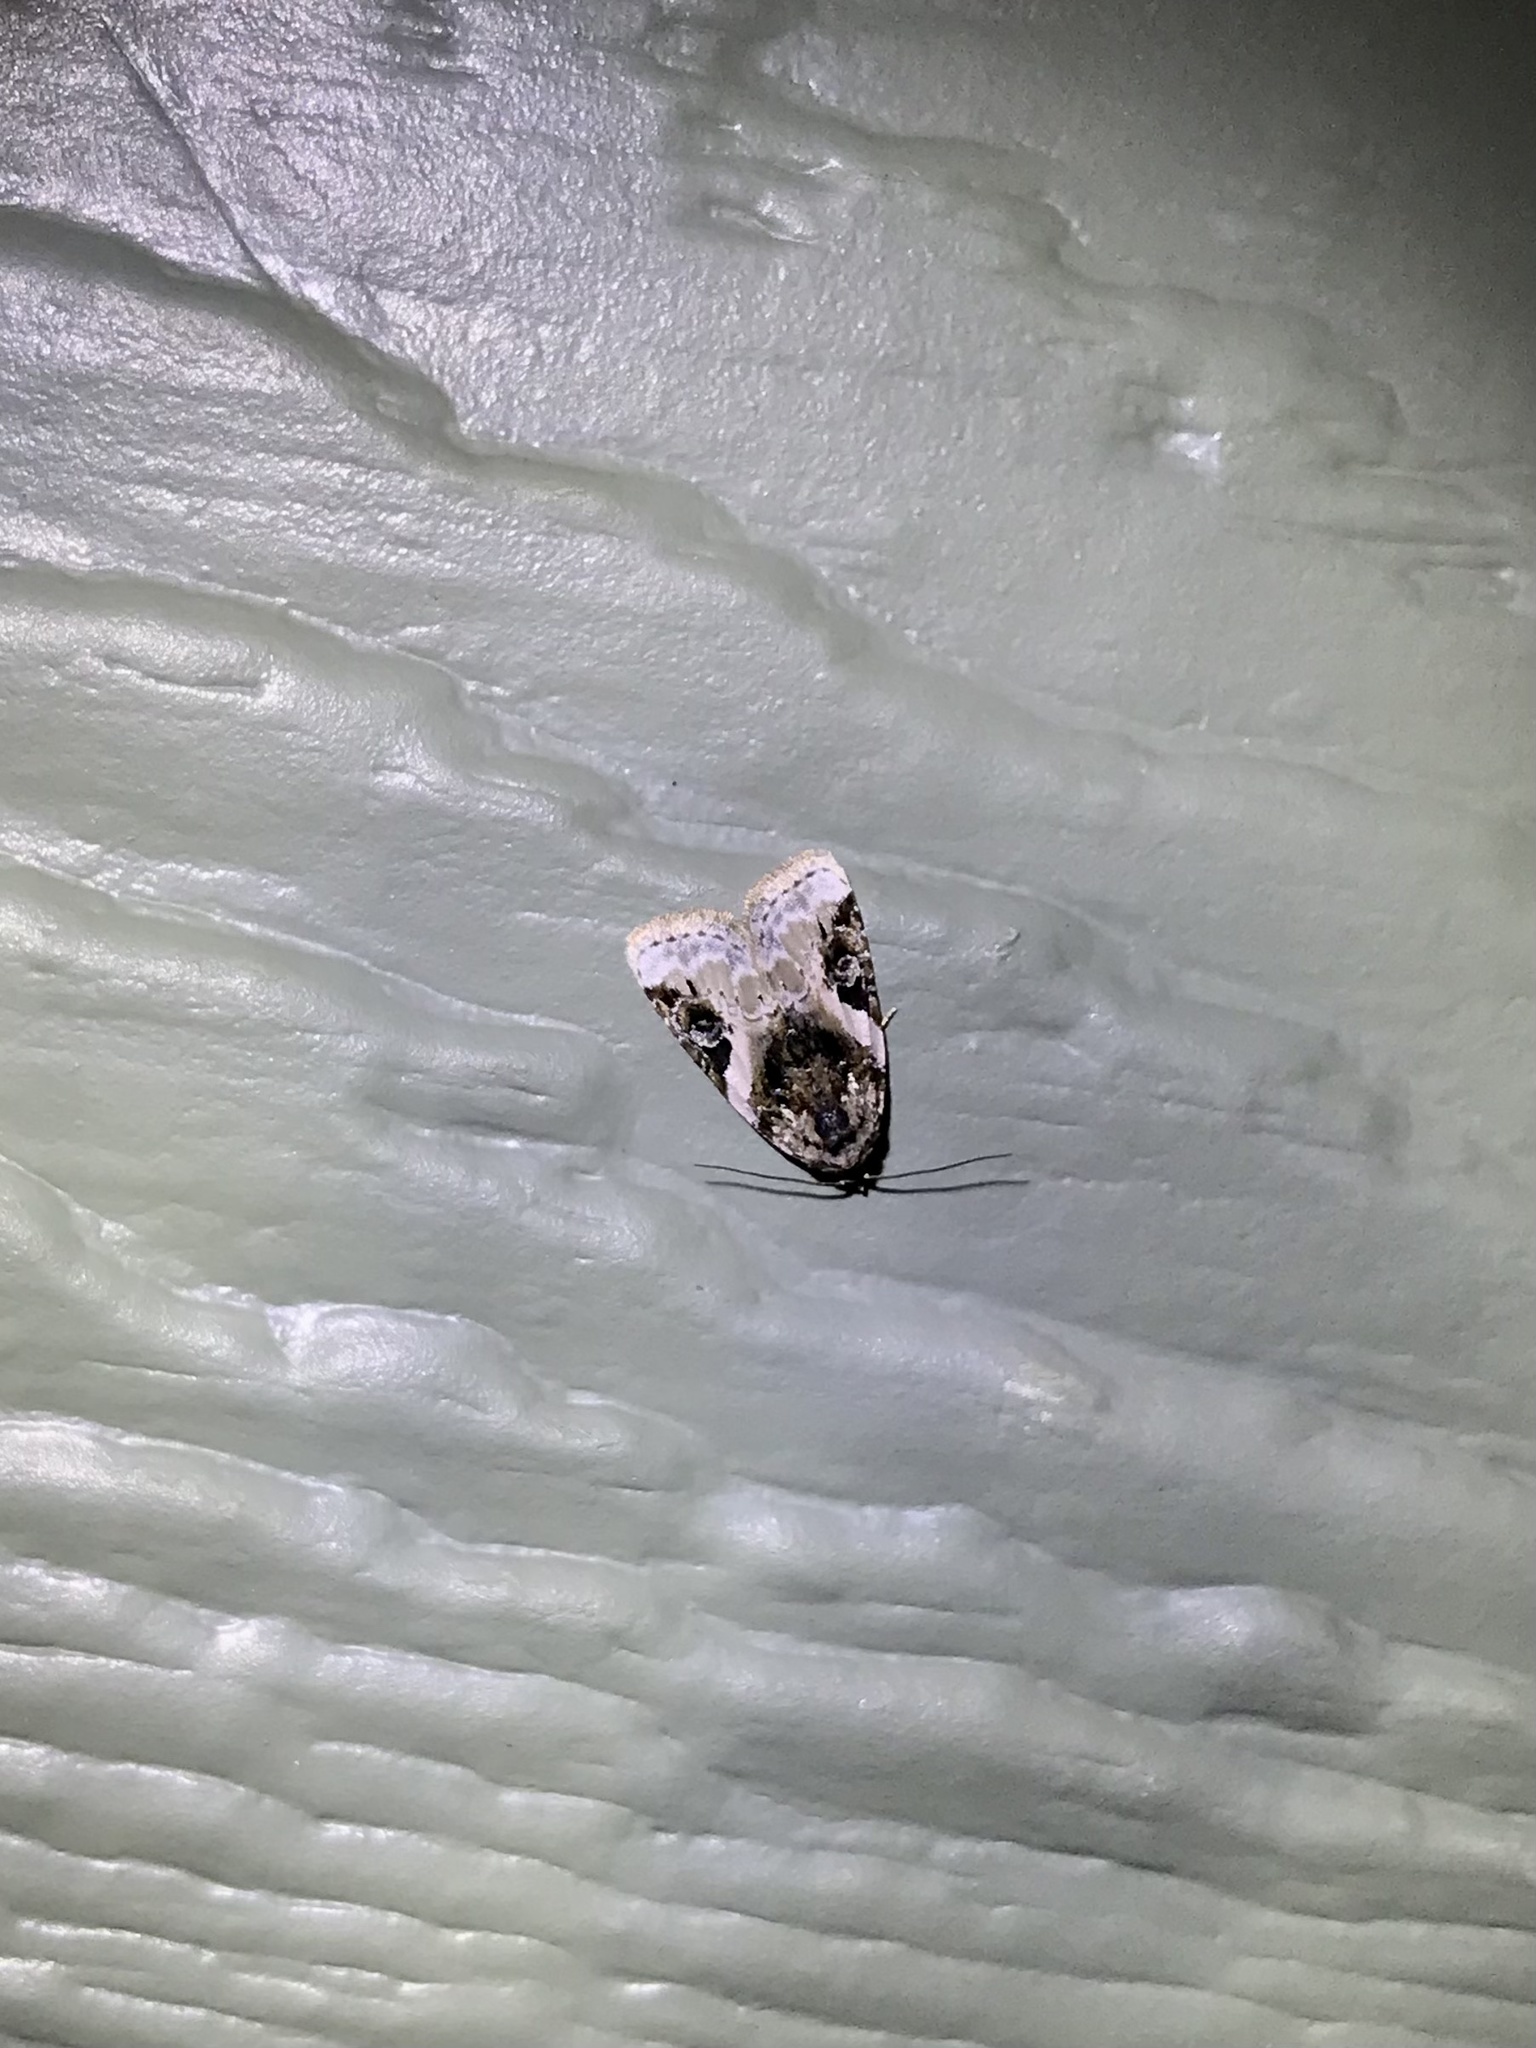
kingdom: Animalia
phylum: Arthropoda
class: Insecta
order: Lepidoptera
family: Noctuidae
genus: Pseudeustrotia
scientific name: Pseudeustrotia carneola
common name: Pink-barred lithacodia moth
